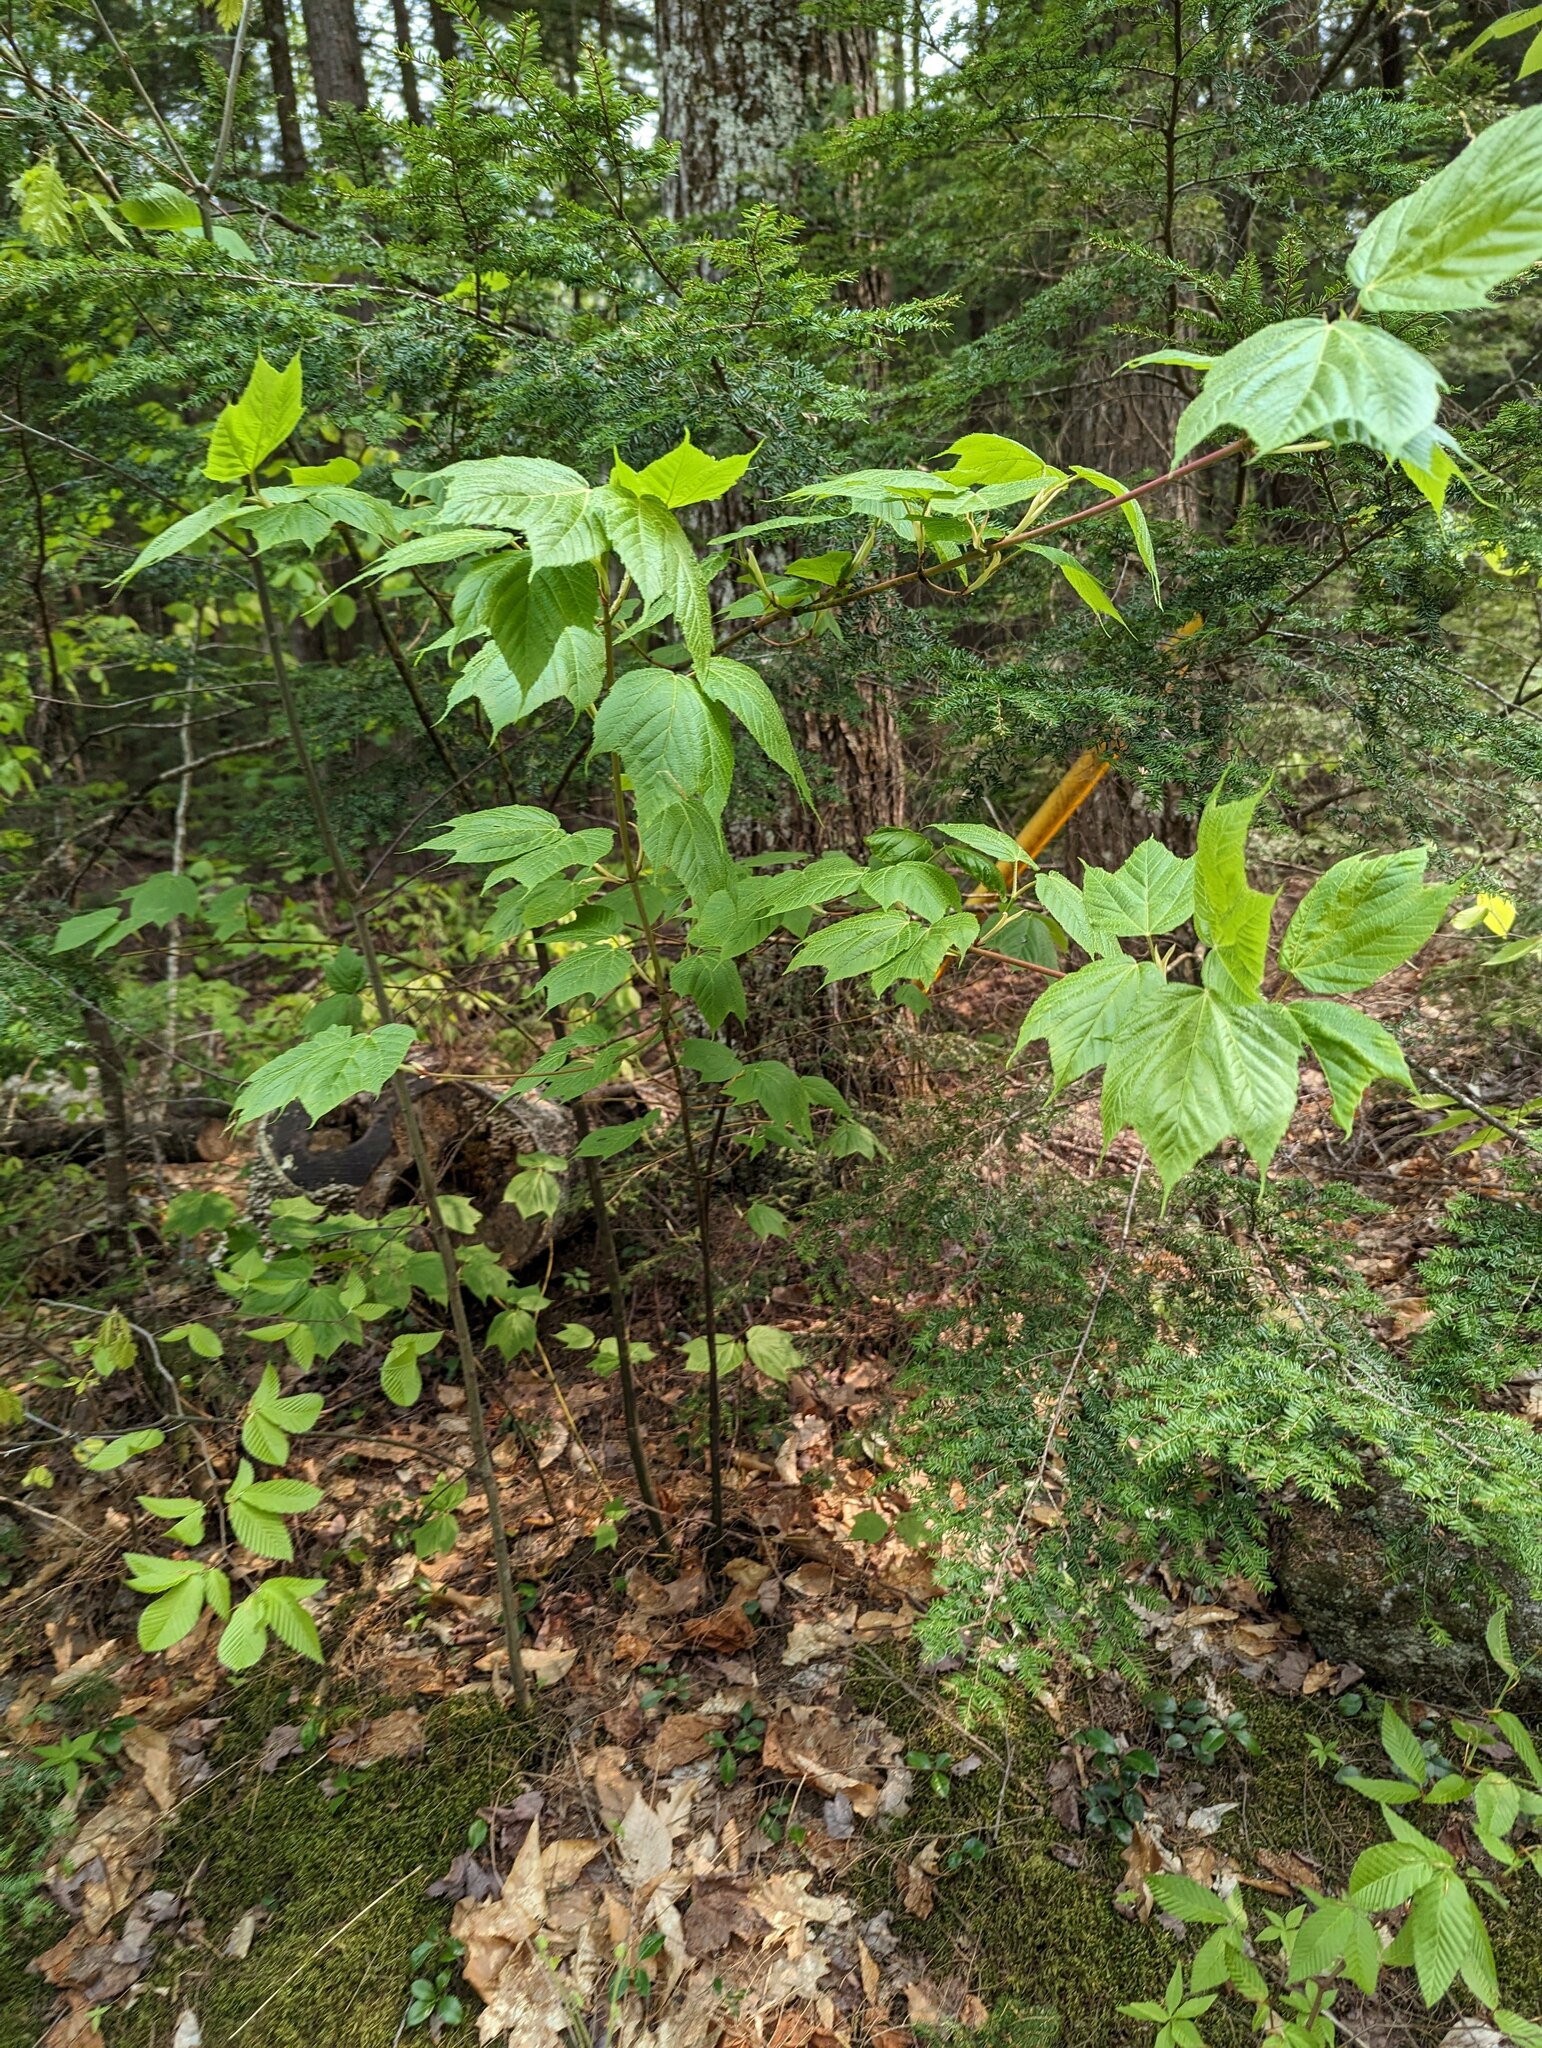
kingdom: Plantae
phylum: Tracheophyta
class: Magnoliopsida
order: Sapindales
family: Sapindaceae
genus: Acer
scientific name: Acer pensylvanicum
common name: Moosewood
